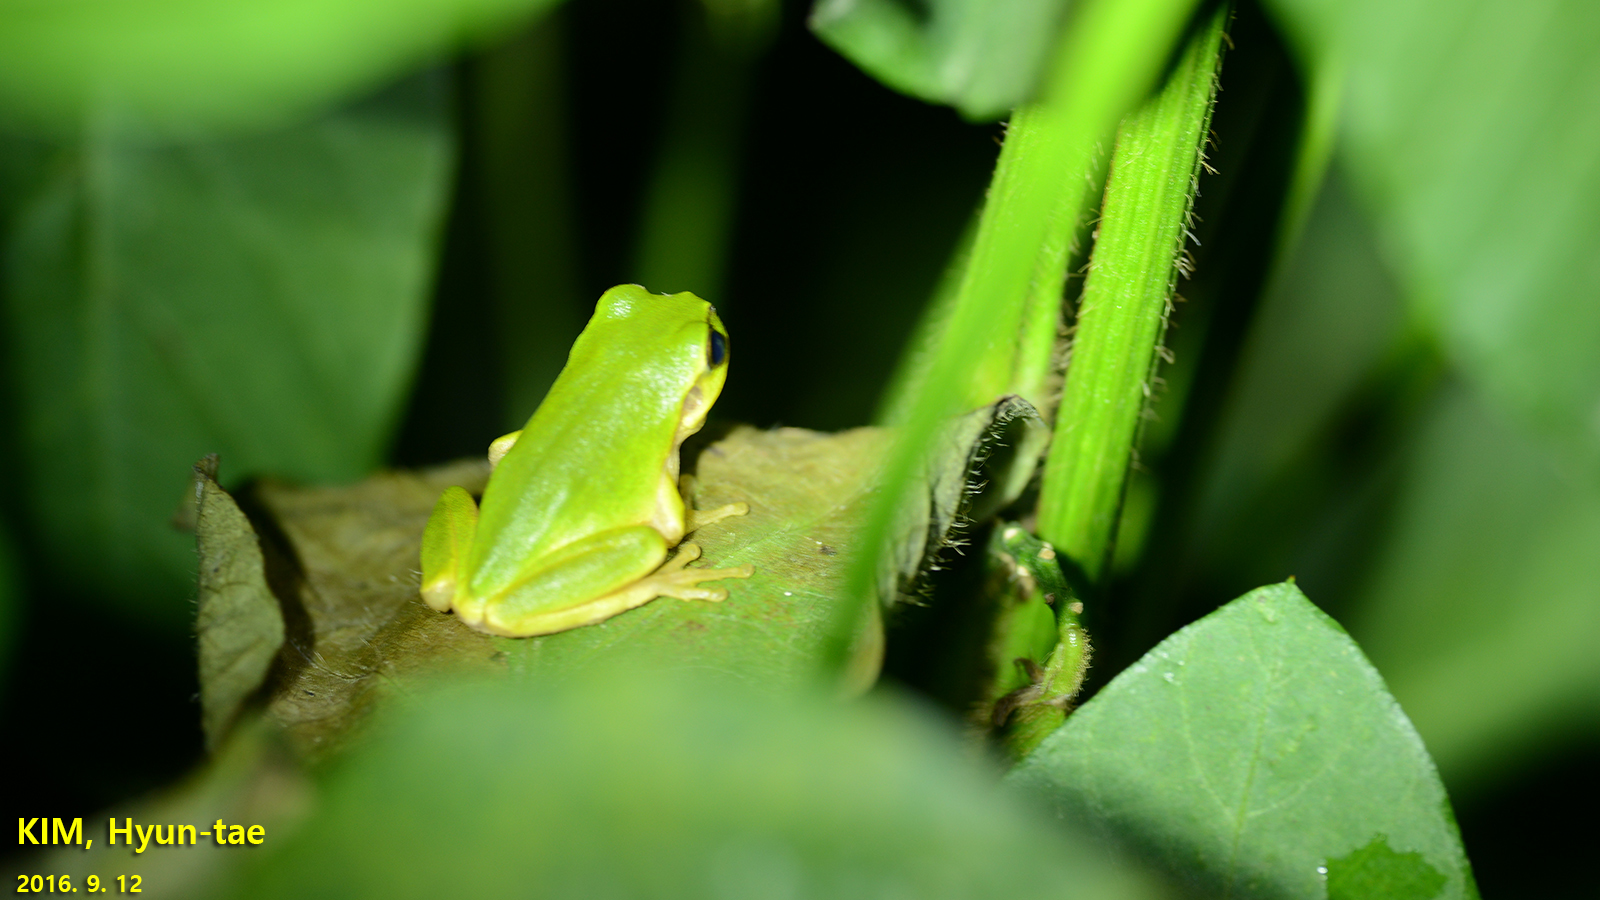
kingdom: Animalia
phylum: Chordata
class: Amphibia
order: Anura
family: Hylidae
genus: Dryophytes
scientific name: Dryophytes japonicus
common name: Japanese treefrog
